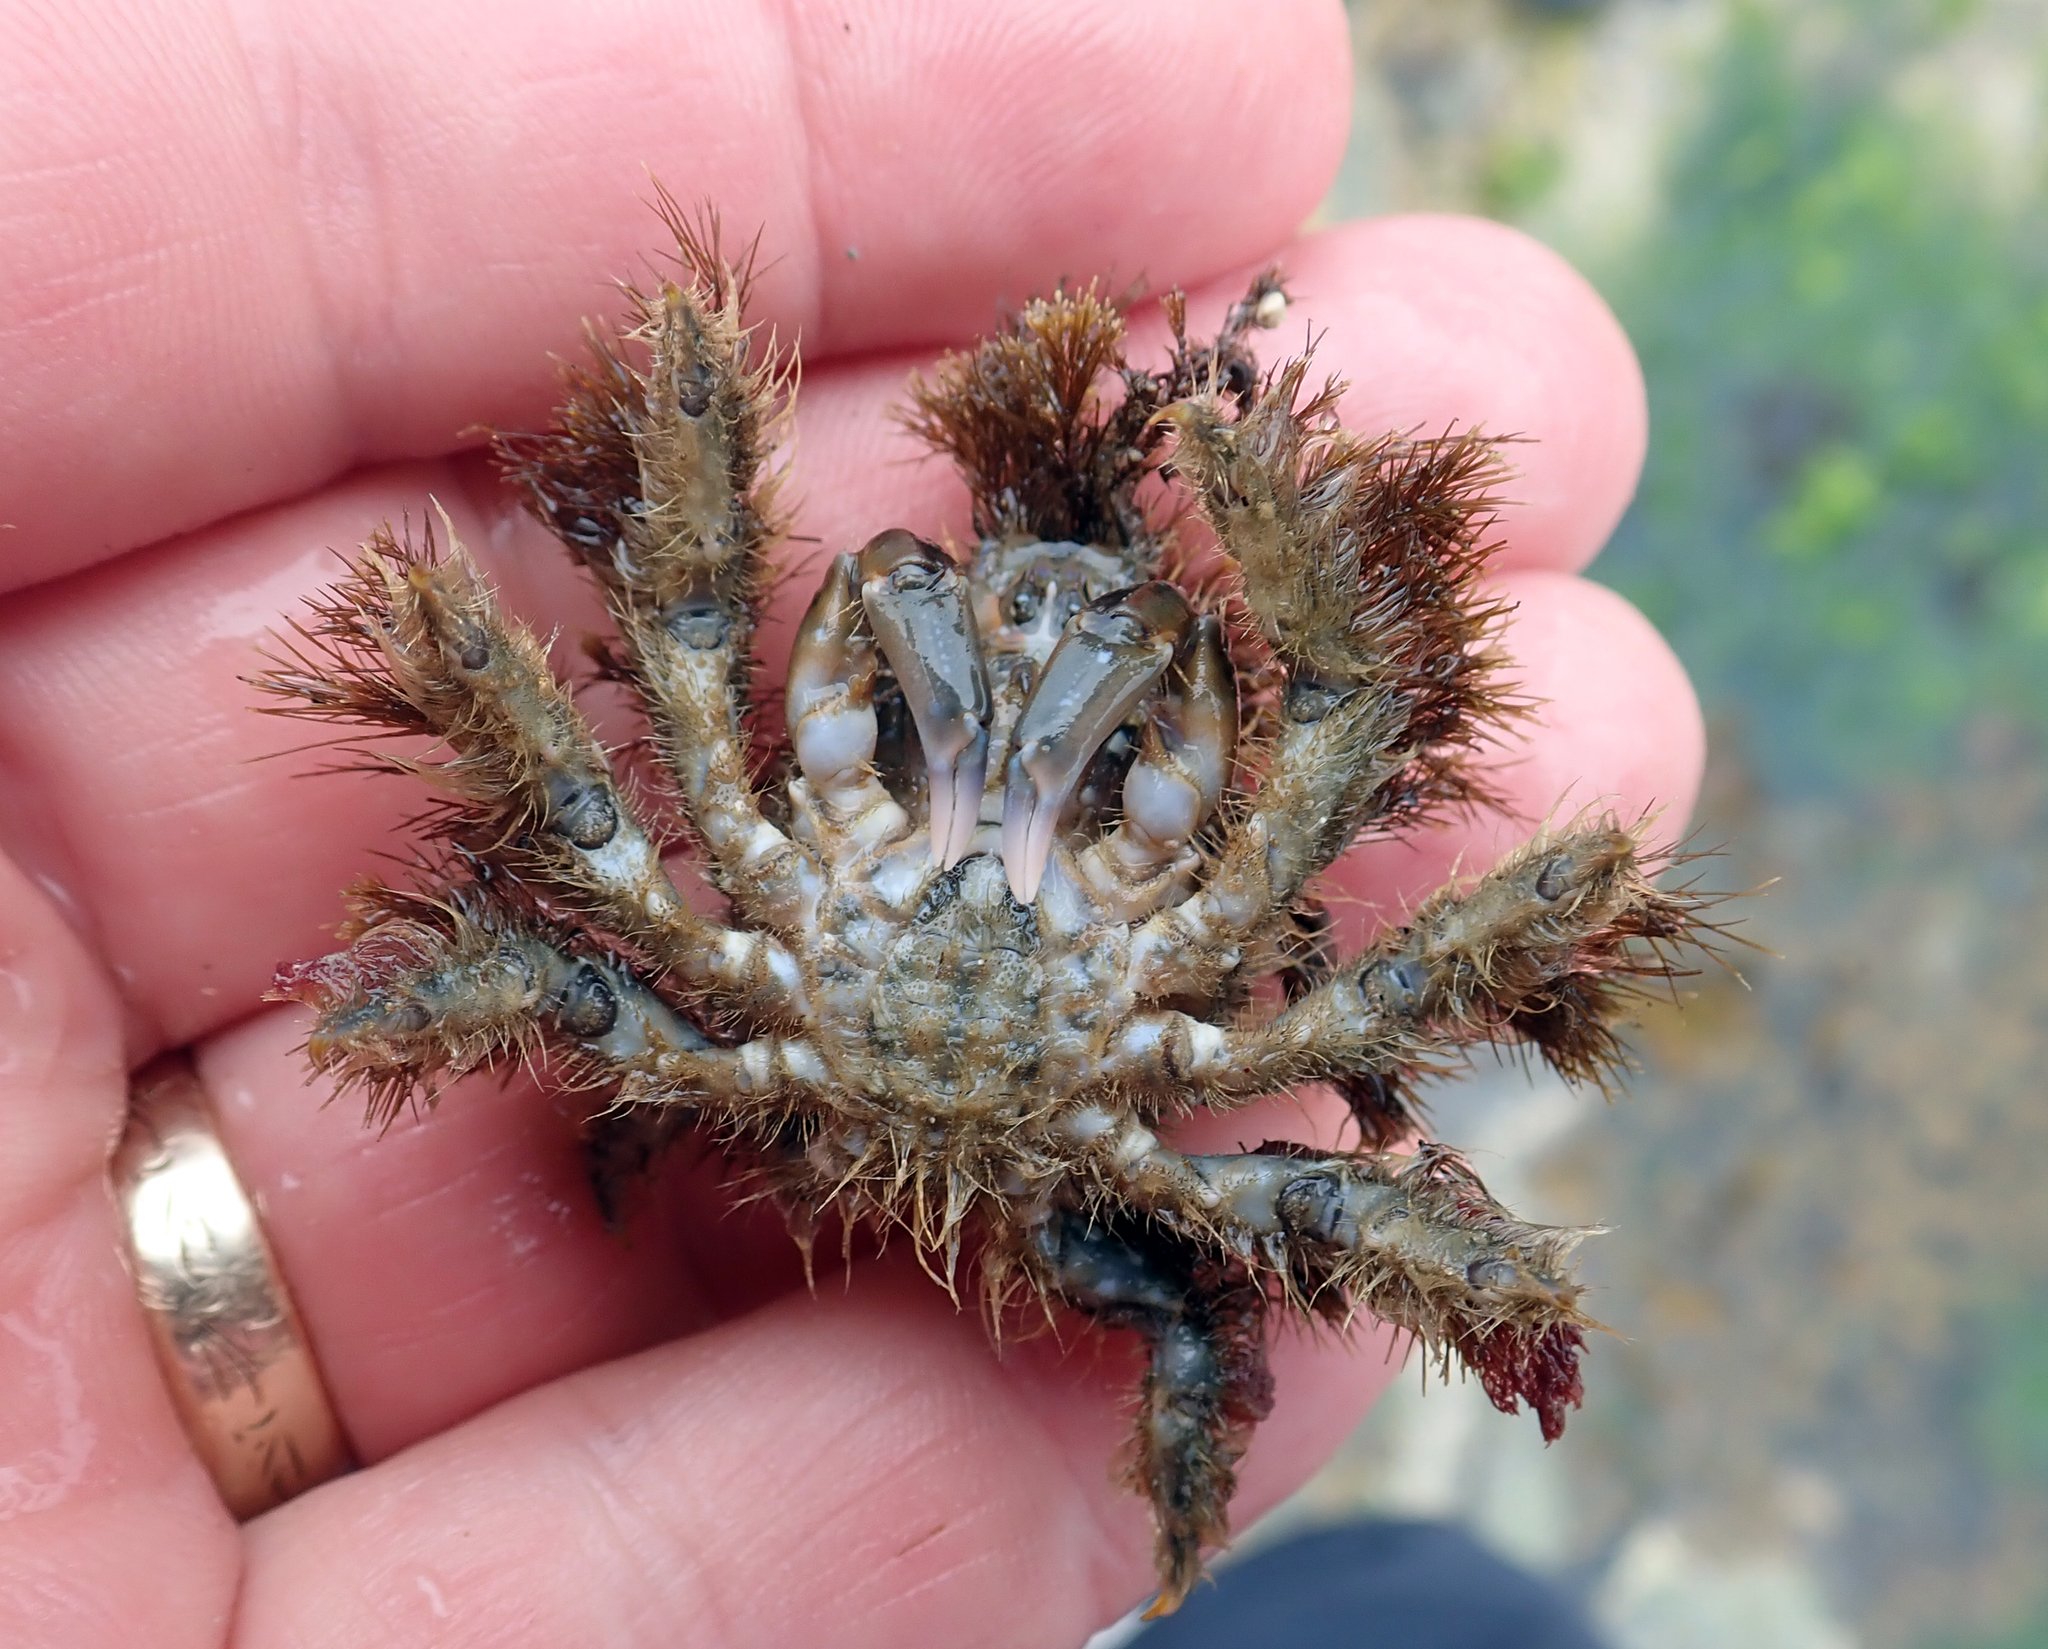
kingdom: Animalia
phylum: Arthropoda
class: Malacostraca
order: Decapoda
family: Majidae
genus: Notomithrax
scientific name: Notomithrax ursus
